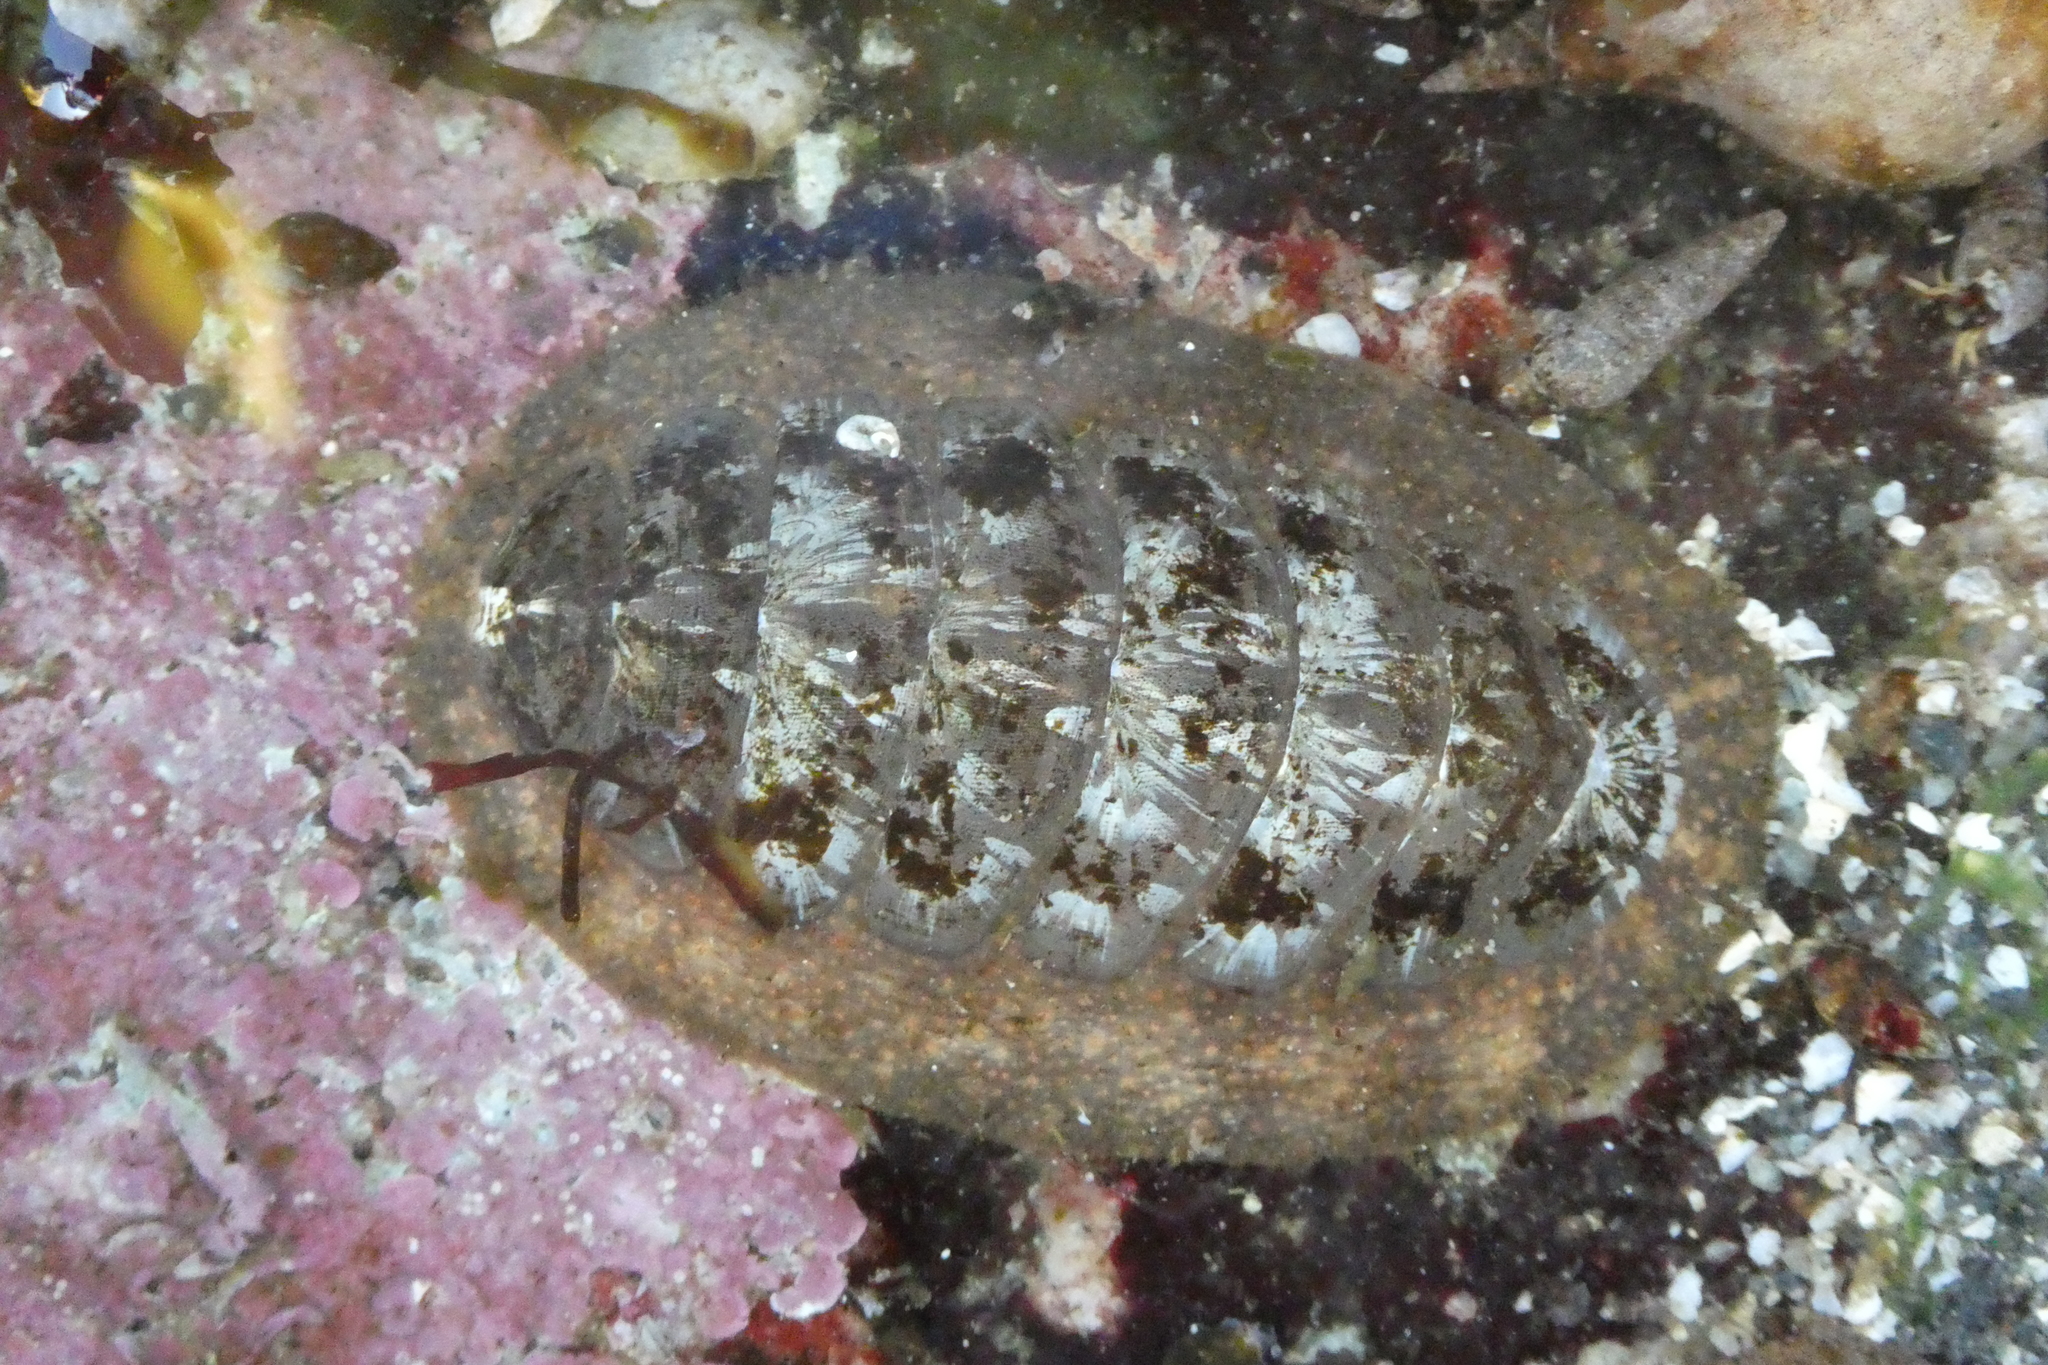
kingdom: Animalia
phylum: Mollusca
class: Polyplacophora
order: Chitonida
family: Mopaliidae
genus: Mopalia
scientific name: Mopalia lignosa
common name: Woody chiton
